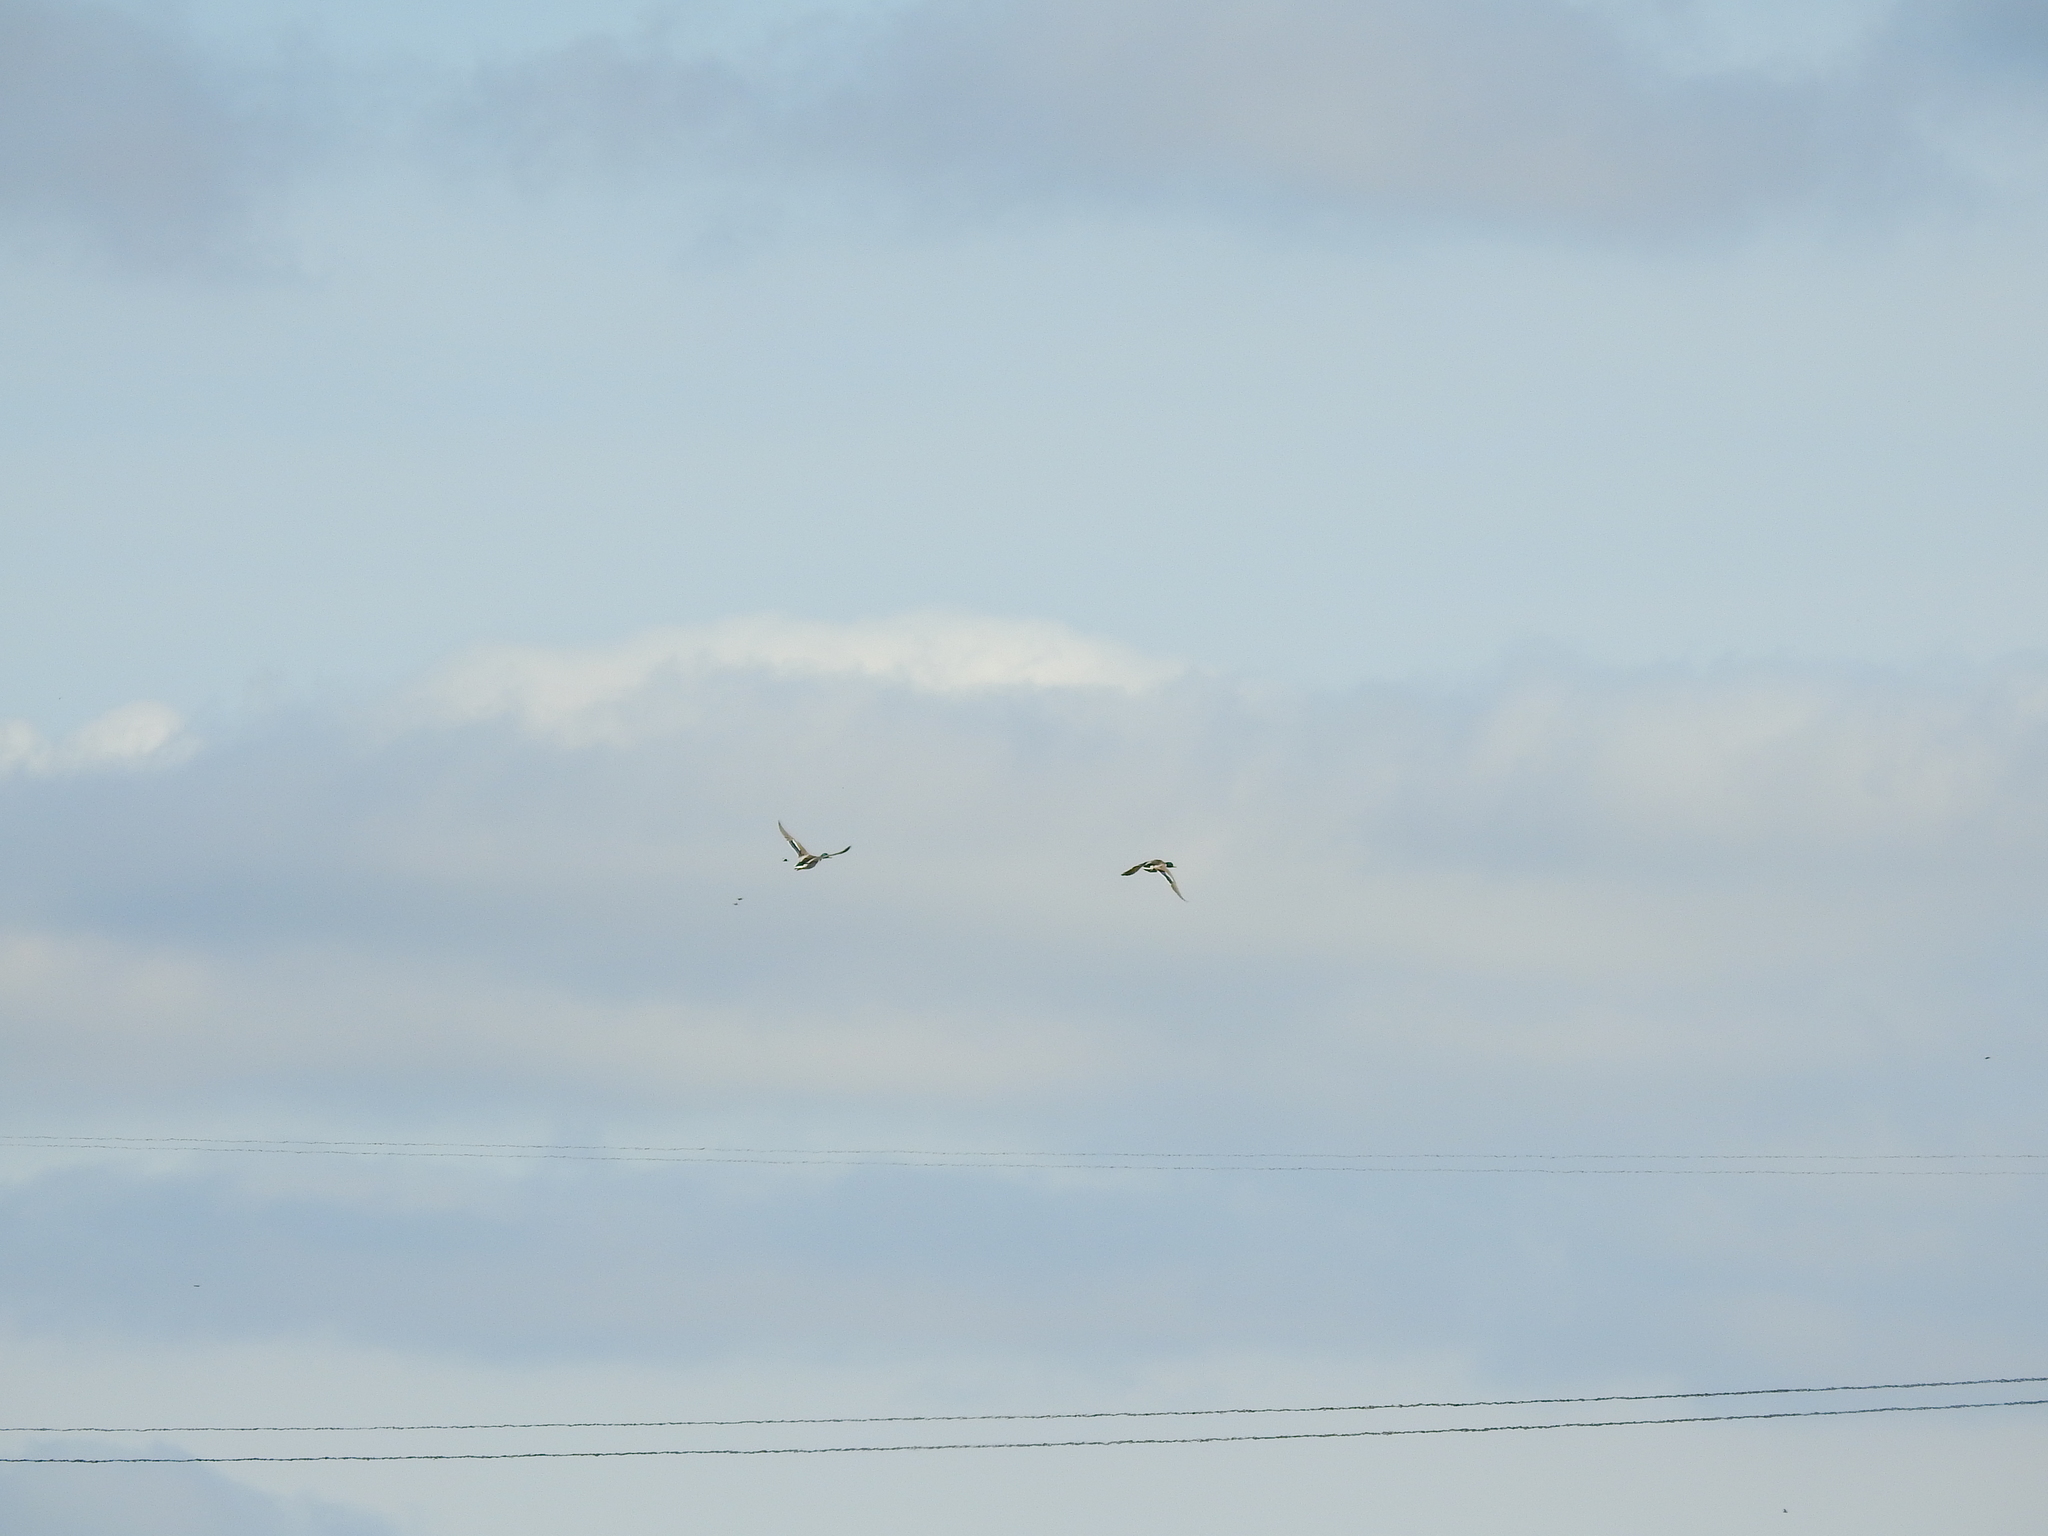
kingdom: Animalia
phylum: Chordata
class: Aves
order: Anseriformes
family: Anatidae
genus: Anas
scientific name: Anas platyrhynchos
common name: Mallard
